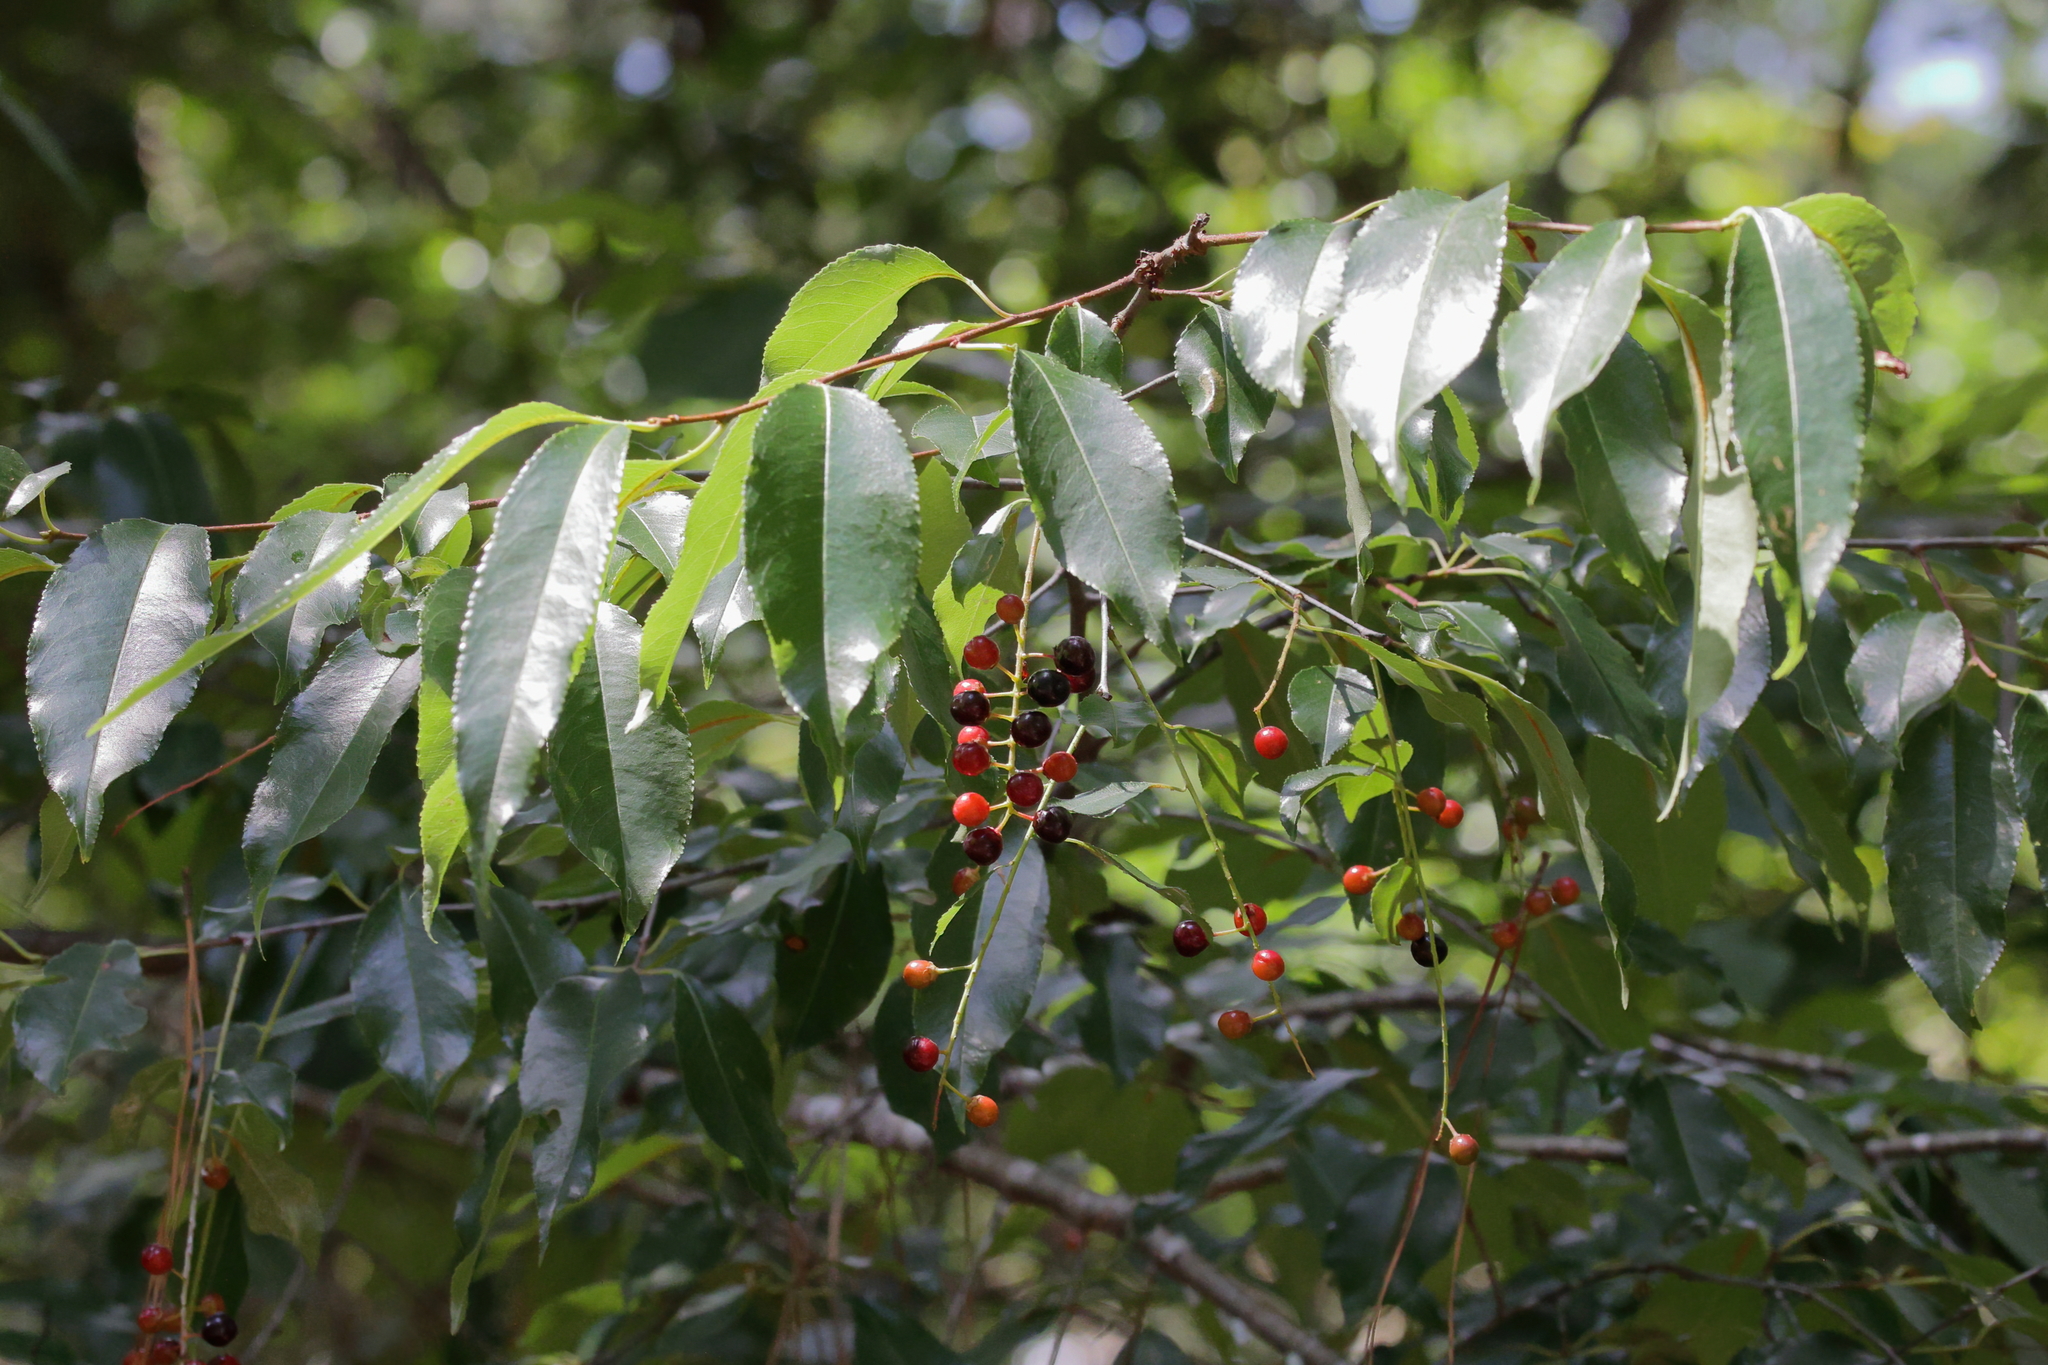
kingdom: Plantae
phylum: Tracheophyta
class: Magnoliopsida
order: Rosales
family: Rosaceae
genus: Prunus
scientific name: Prunus serotina
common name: Black cherry
